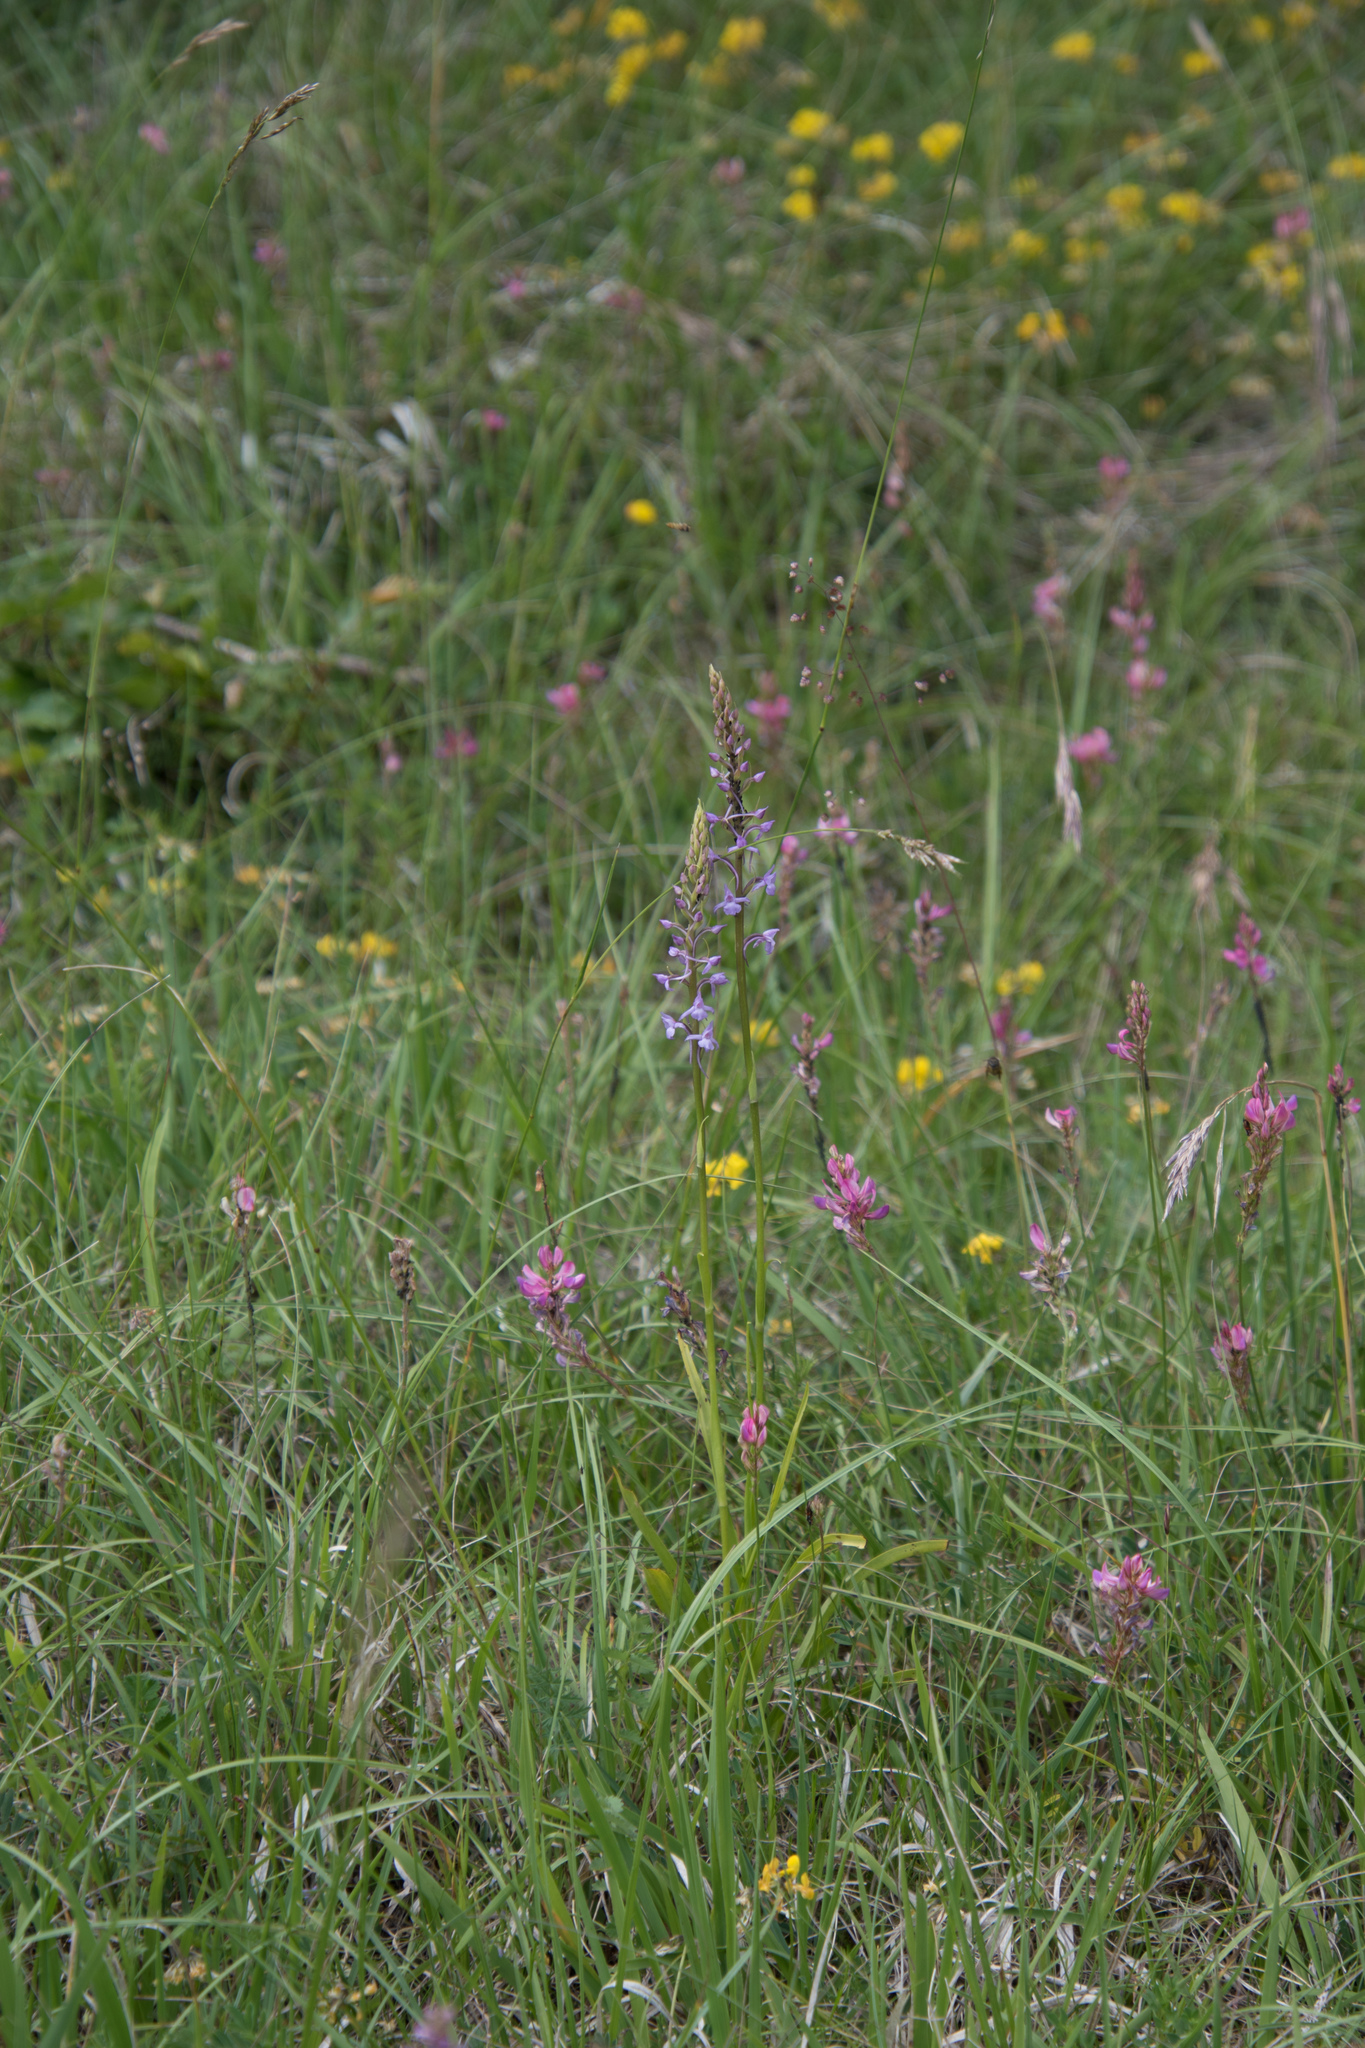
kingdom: Plantae
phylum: Tracheophyta
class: Liliopsida
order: Asparagales
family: Orchidaceae
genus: Gymnadenia
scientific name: Gymnadenia conopsea
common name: Fragrant orchid
